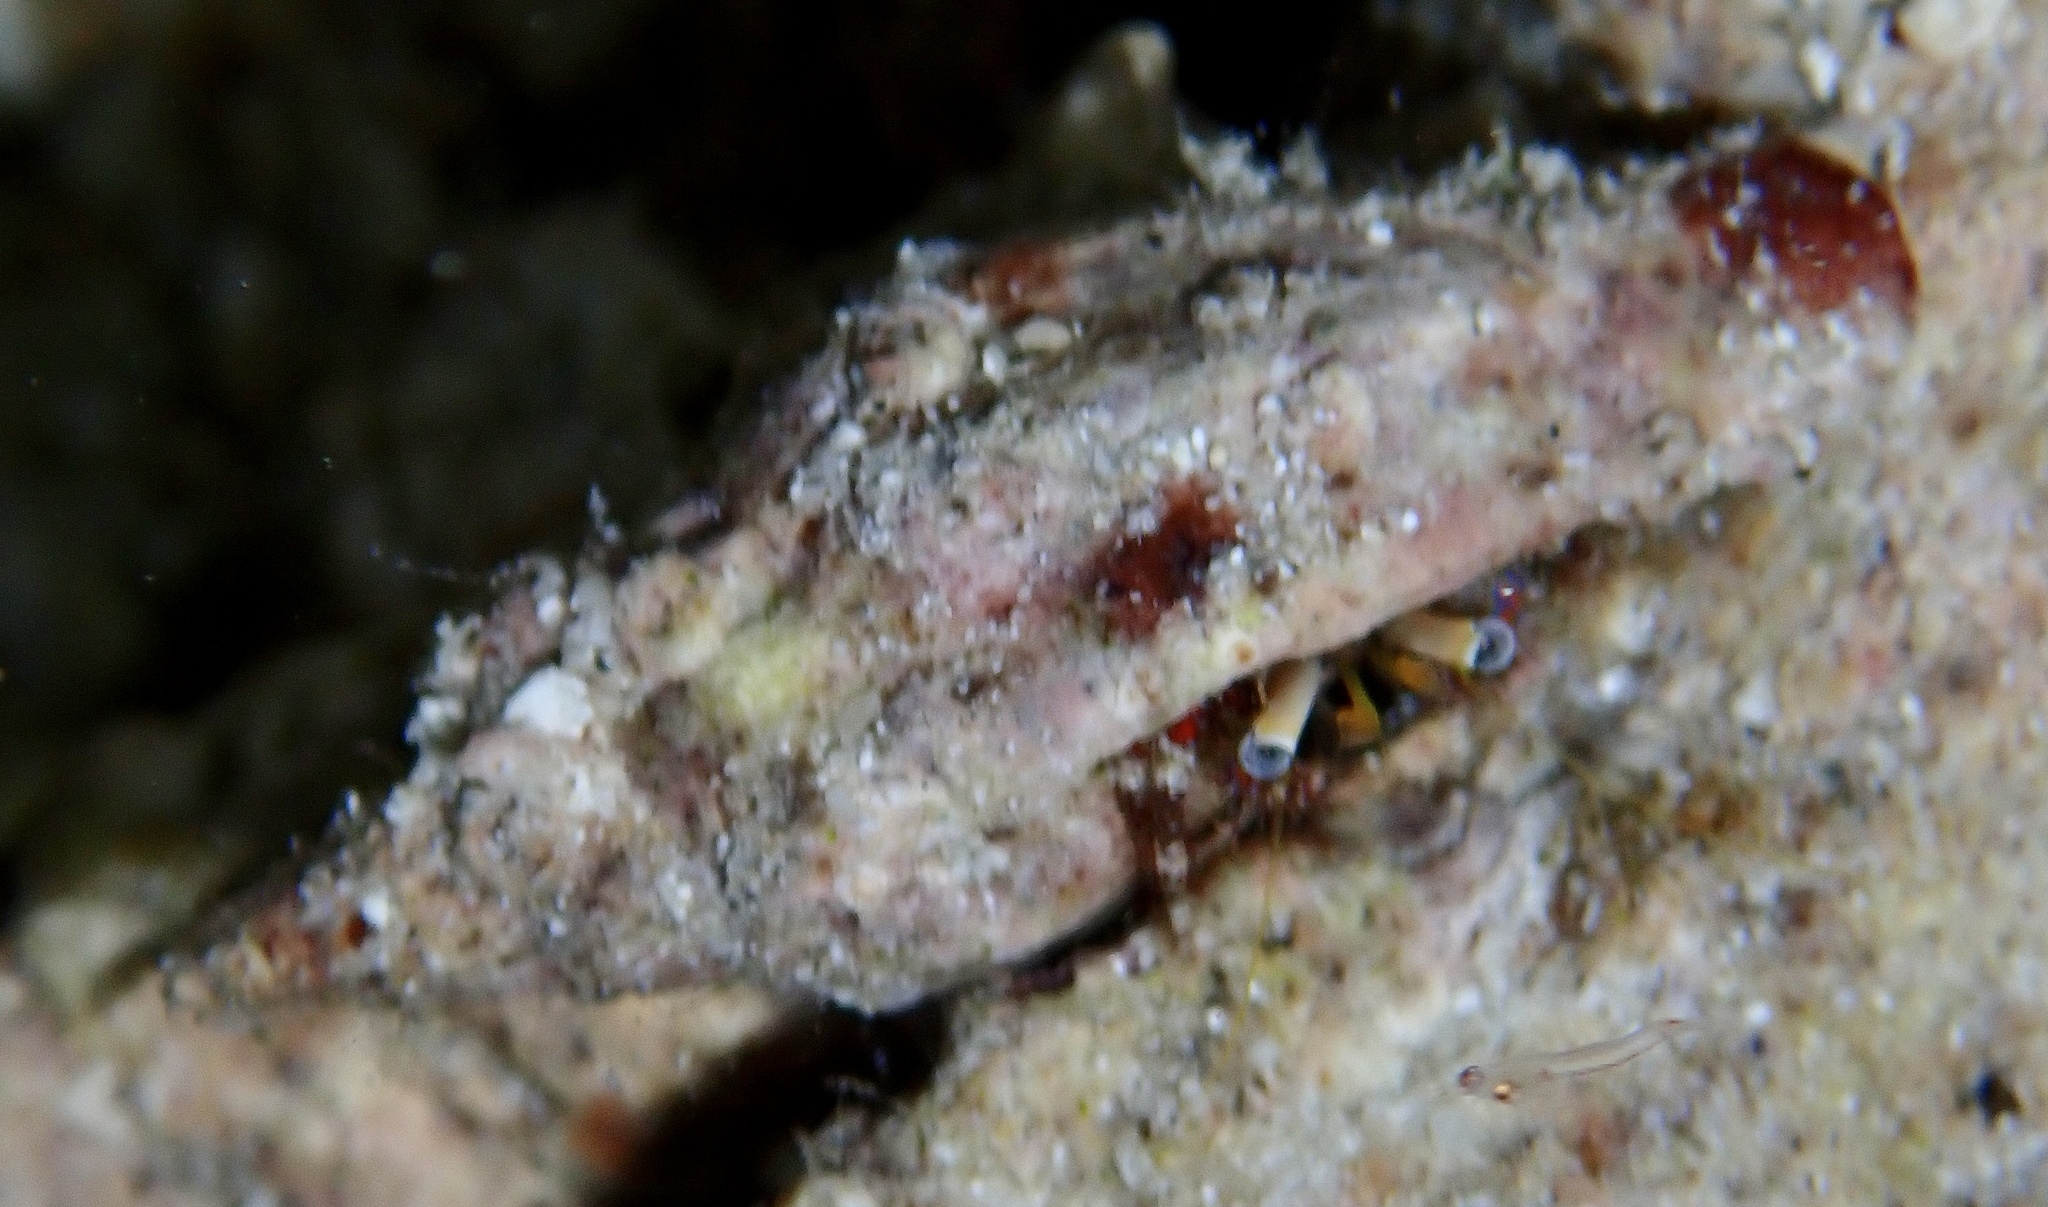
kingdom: Animalia
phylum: Arthropoda
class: Malacostraca
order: Decapoda
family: Diogenidae
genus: Dardanus
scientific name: Dardanus sanguinolentus
